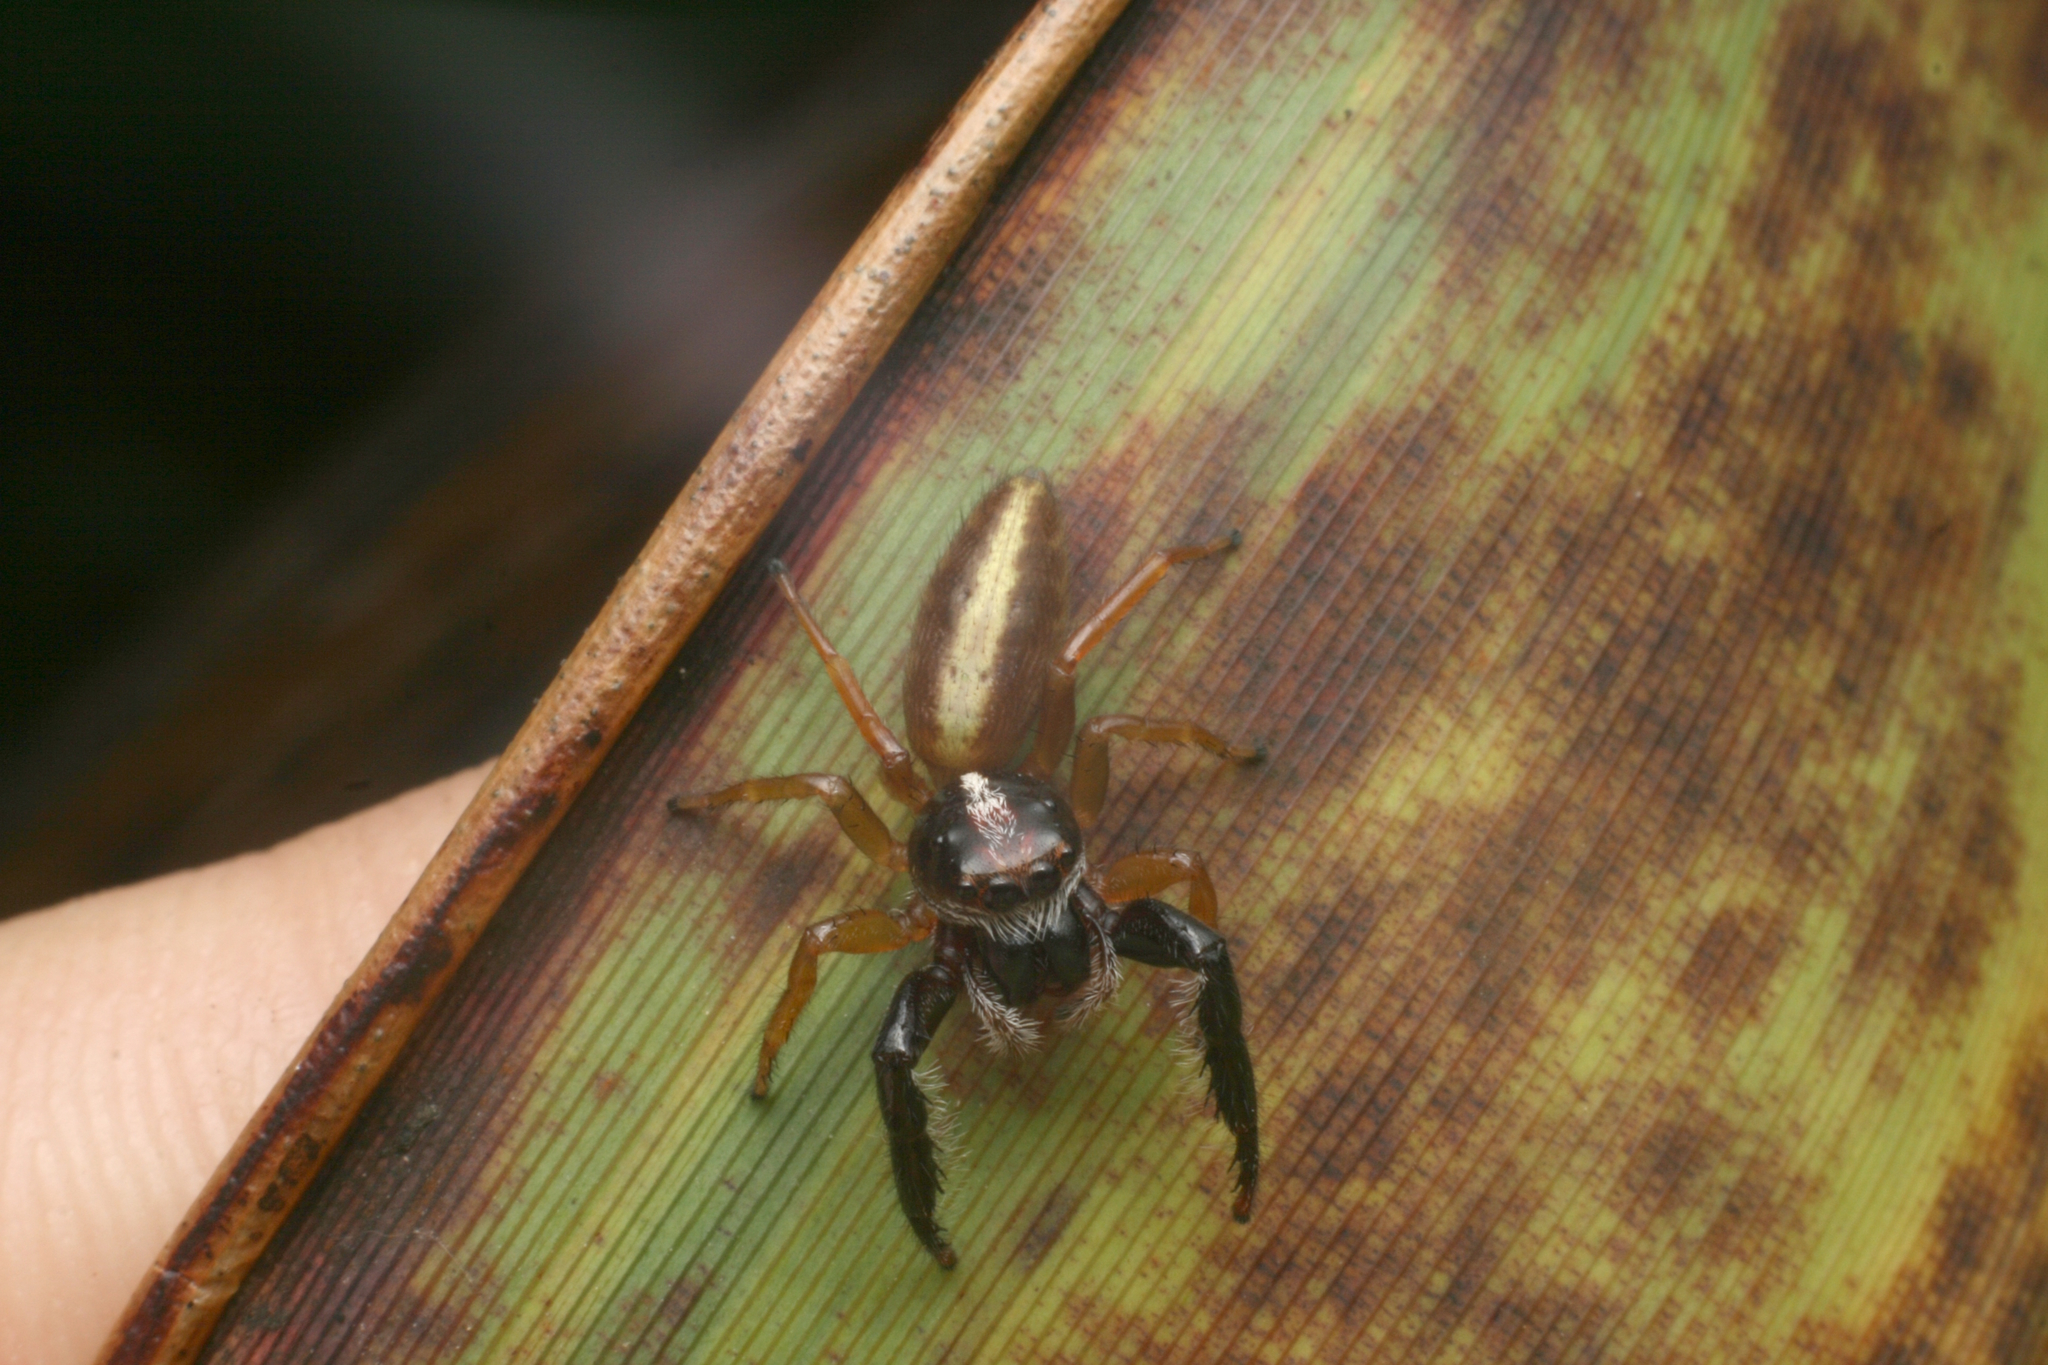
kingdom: Animalia
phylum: Arthropoda
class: Arachnida
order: Araneae
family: Salticidae
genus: Trite
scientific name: Trite planiceps
